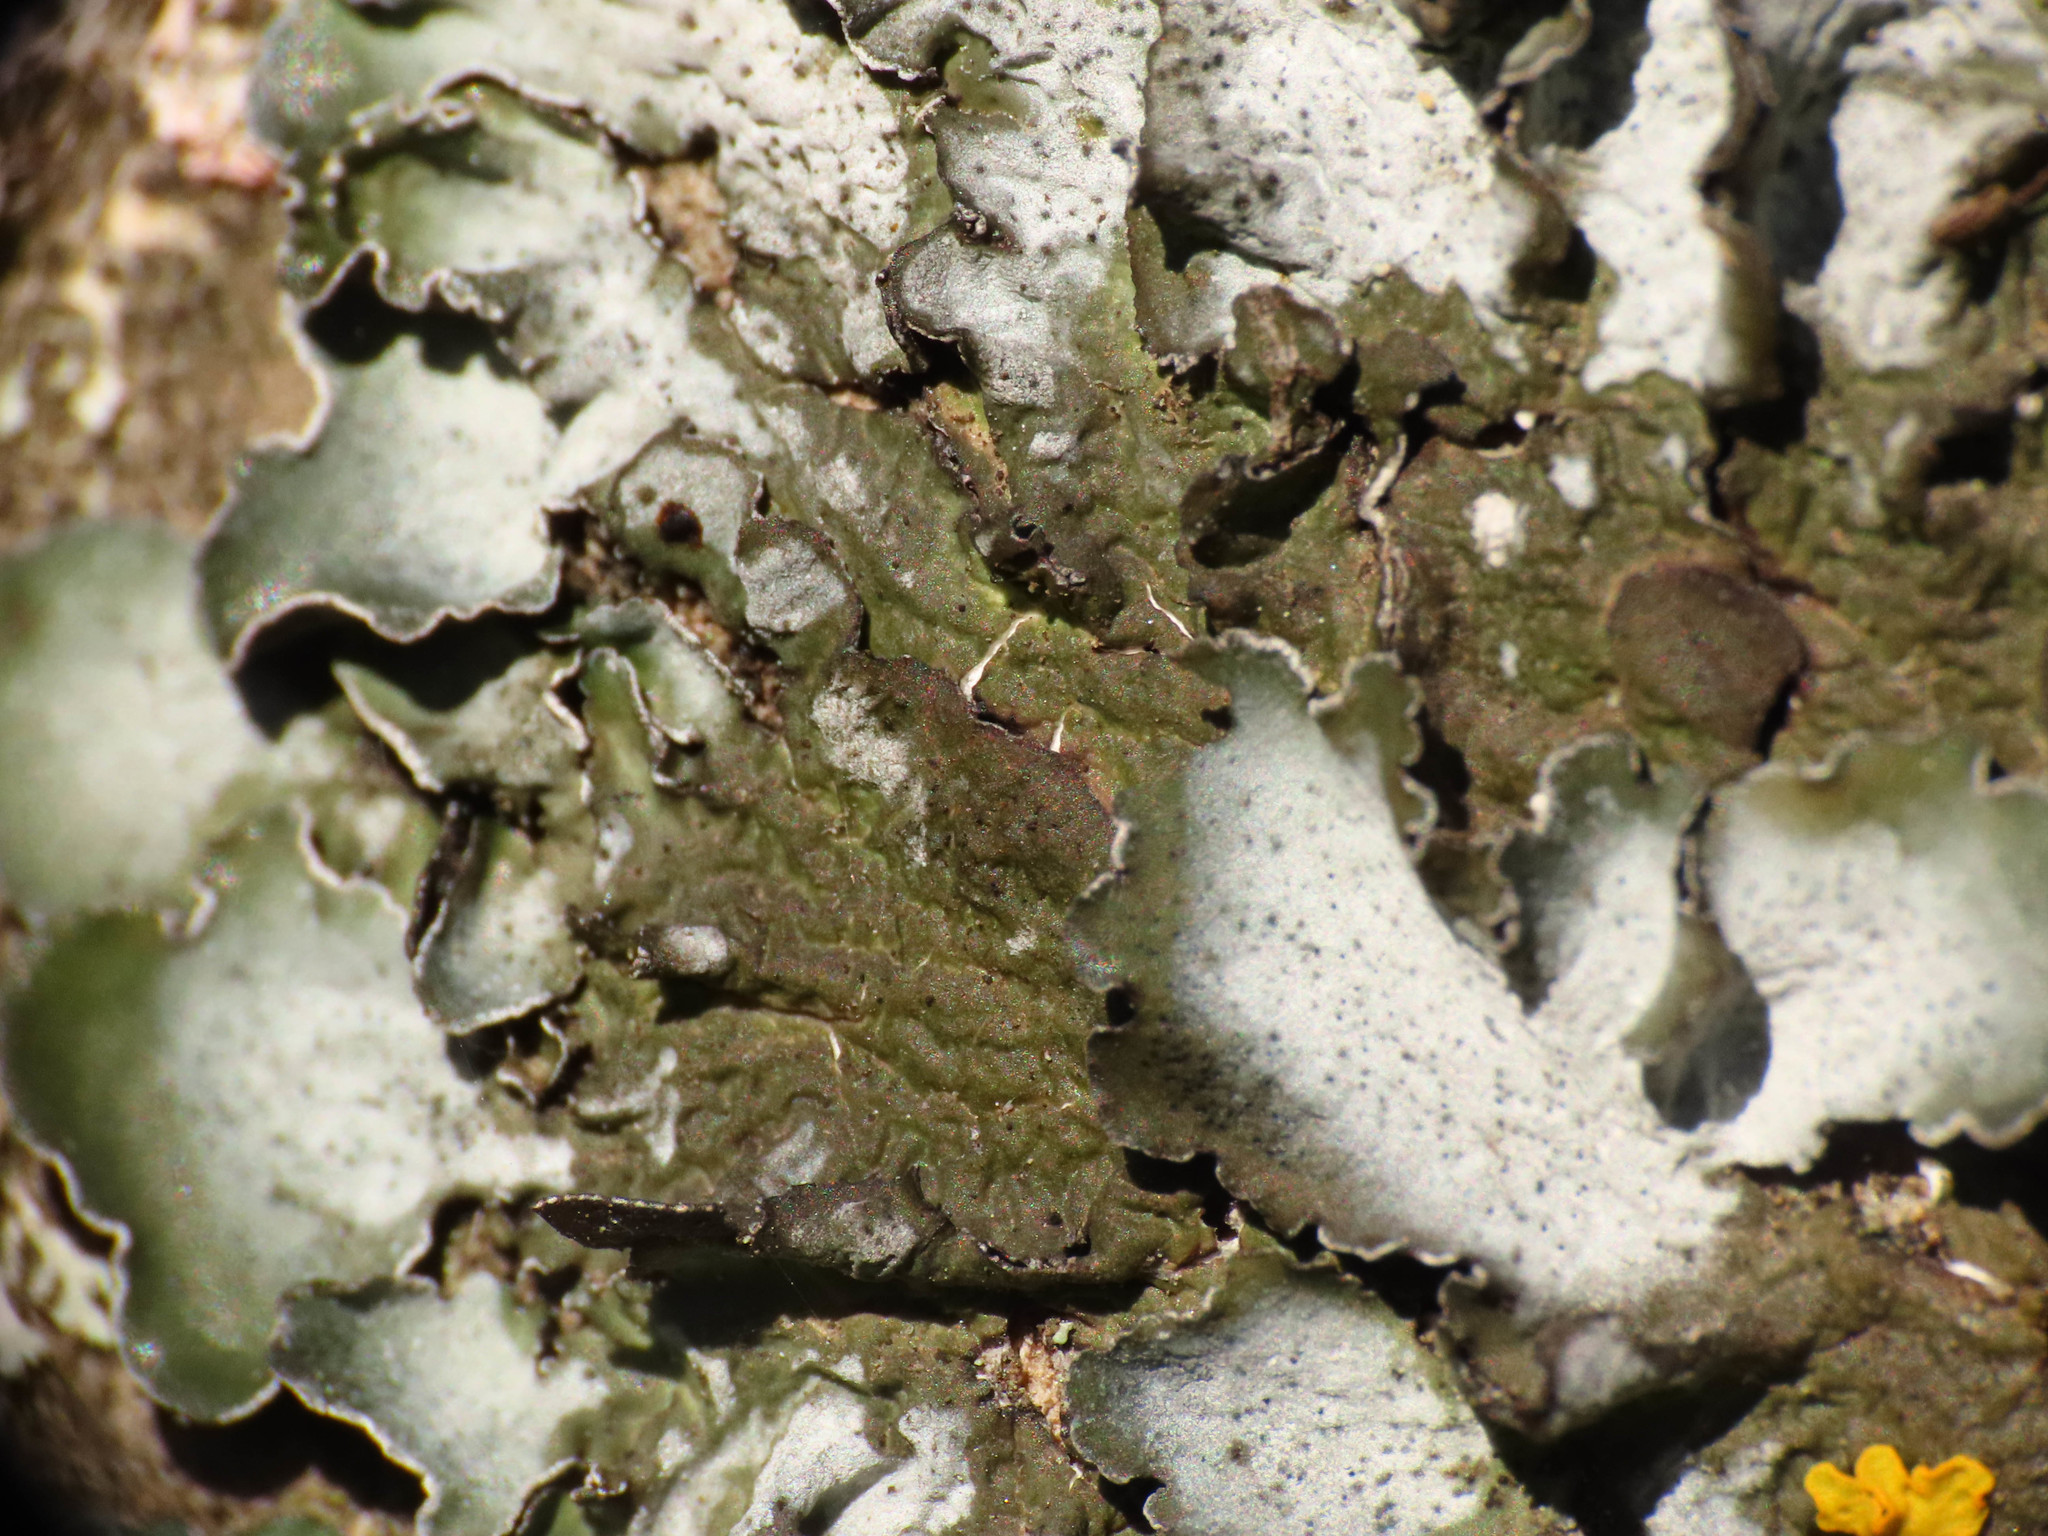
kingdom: Fungi
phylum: Ascomycota
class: Lecanoromycetes
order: Lecanorales
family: Parmeliaceae
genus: Pleurosticta
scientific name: Pleurosticta acetabulum
